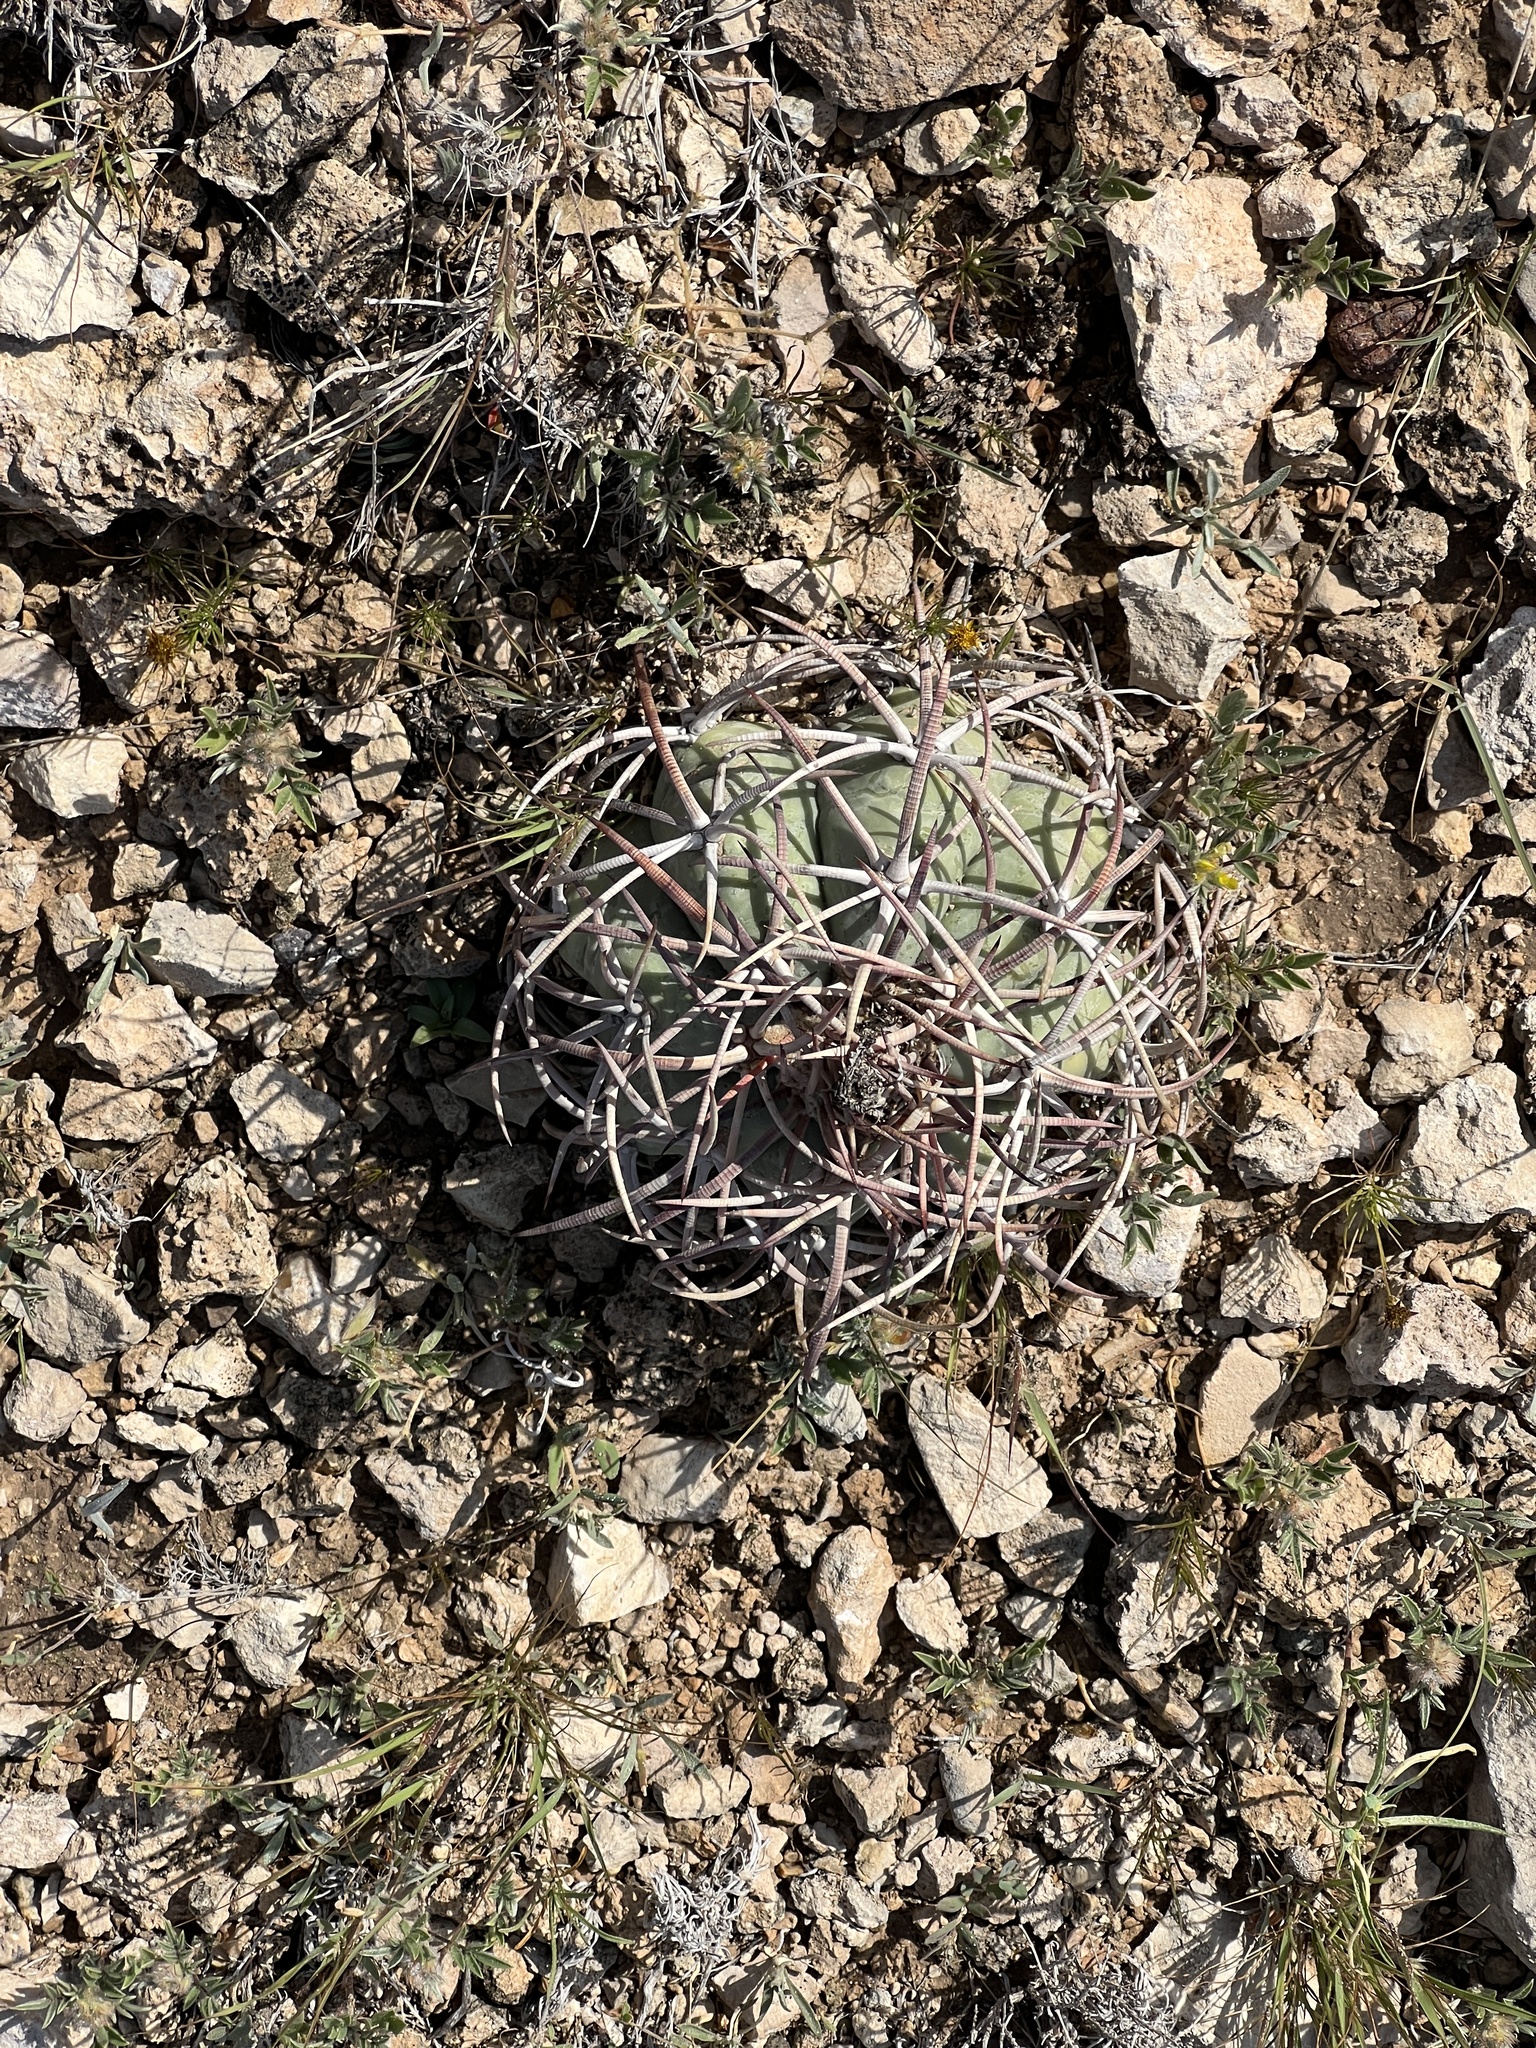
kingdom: Plantae
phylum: Tracheophyta
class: Magnoliopsida
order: Caryophyllales
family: Cactaceae
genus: Echinocactus
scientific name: Echinocactus horizonthalonius
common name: Devilshead
